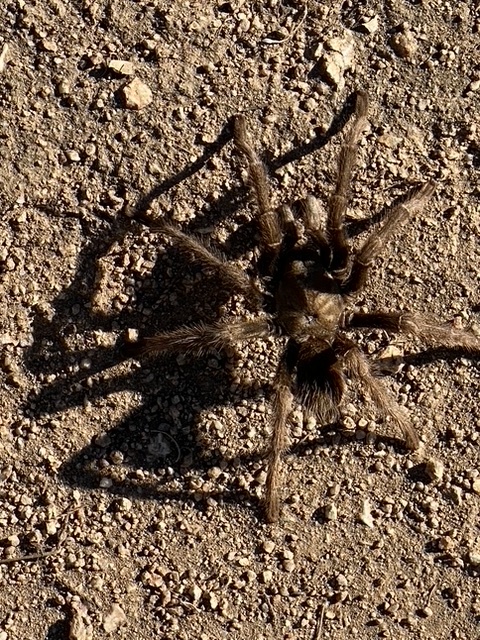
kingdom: Animalia
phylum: Arthropoda
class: Arachnida
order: Araneae
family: Theraphosidae
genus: Aphonopelma
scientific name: Aphonopelma iodius
